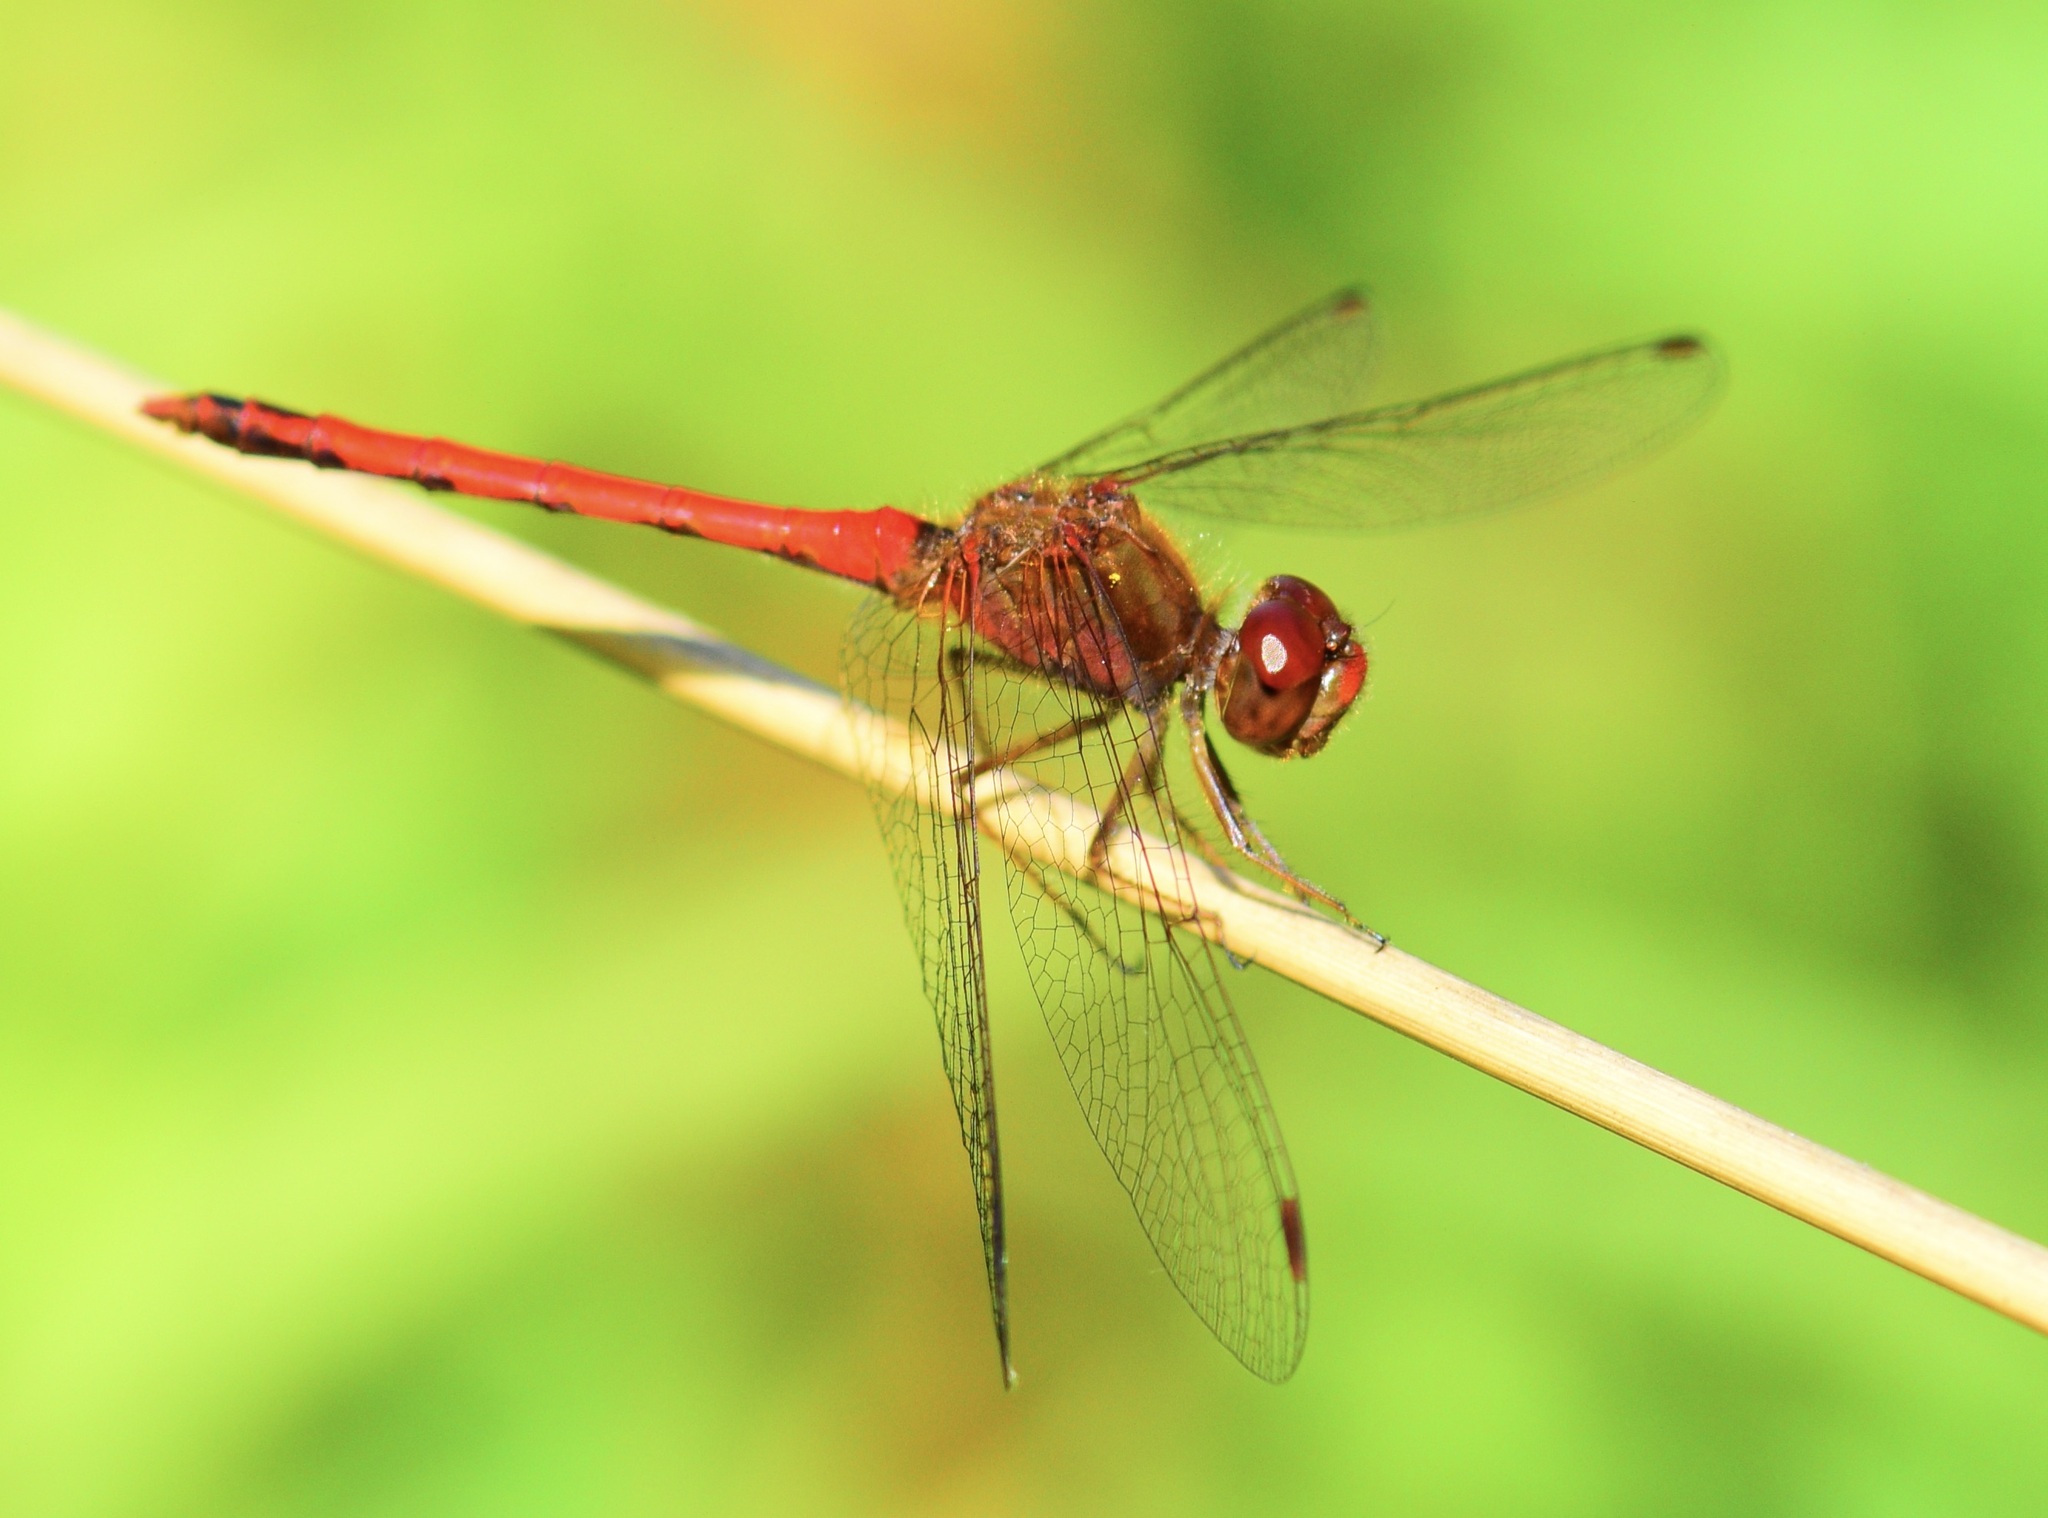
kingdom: Animalia
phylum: Arthropoda
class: Insecta
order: Odonata
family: Libellulidae
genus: Sympetrum
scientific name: Sympetrum vicinum
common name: Autumn meadowhawk
